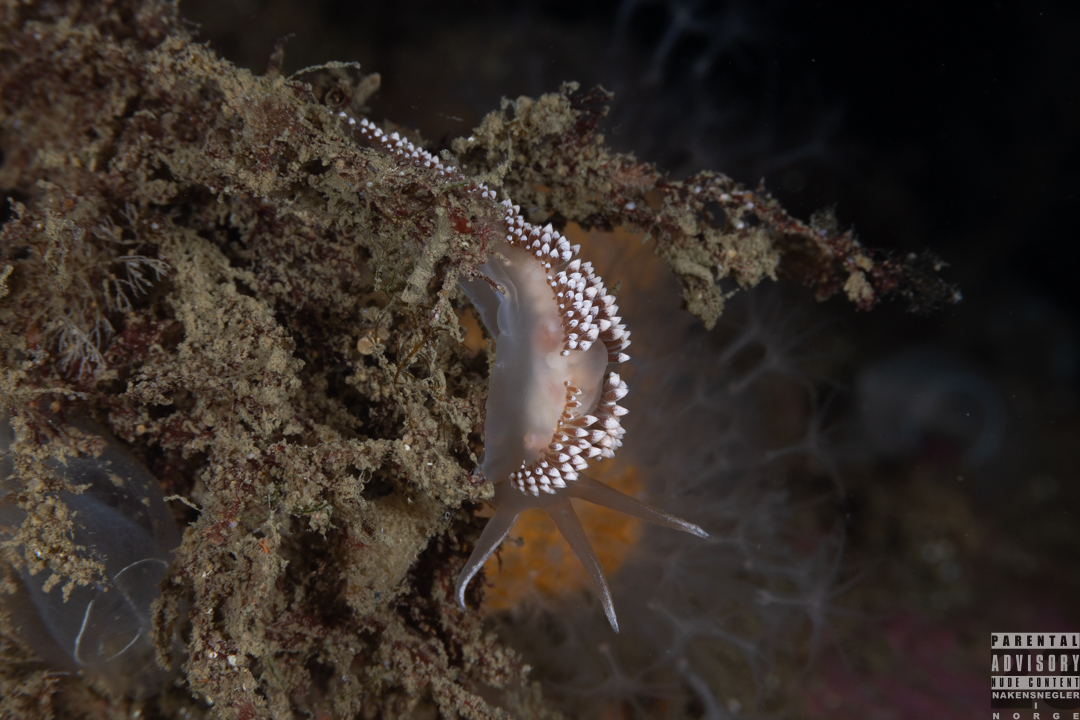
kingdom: Animalia
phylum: Mollusca
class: Gastropoda
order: Nudibranchia
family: Coryphellidae
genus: Coryphella
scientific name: Coryphella verrucosa
